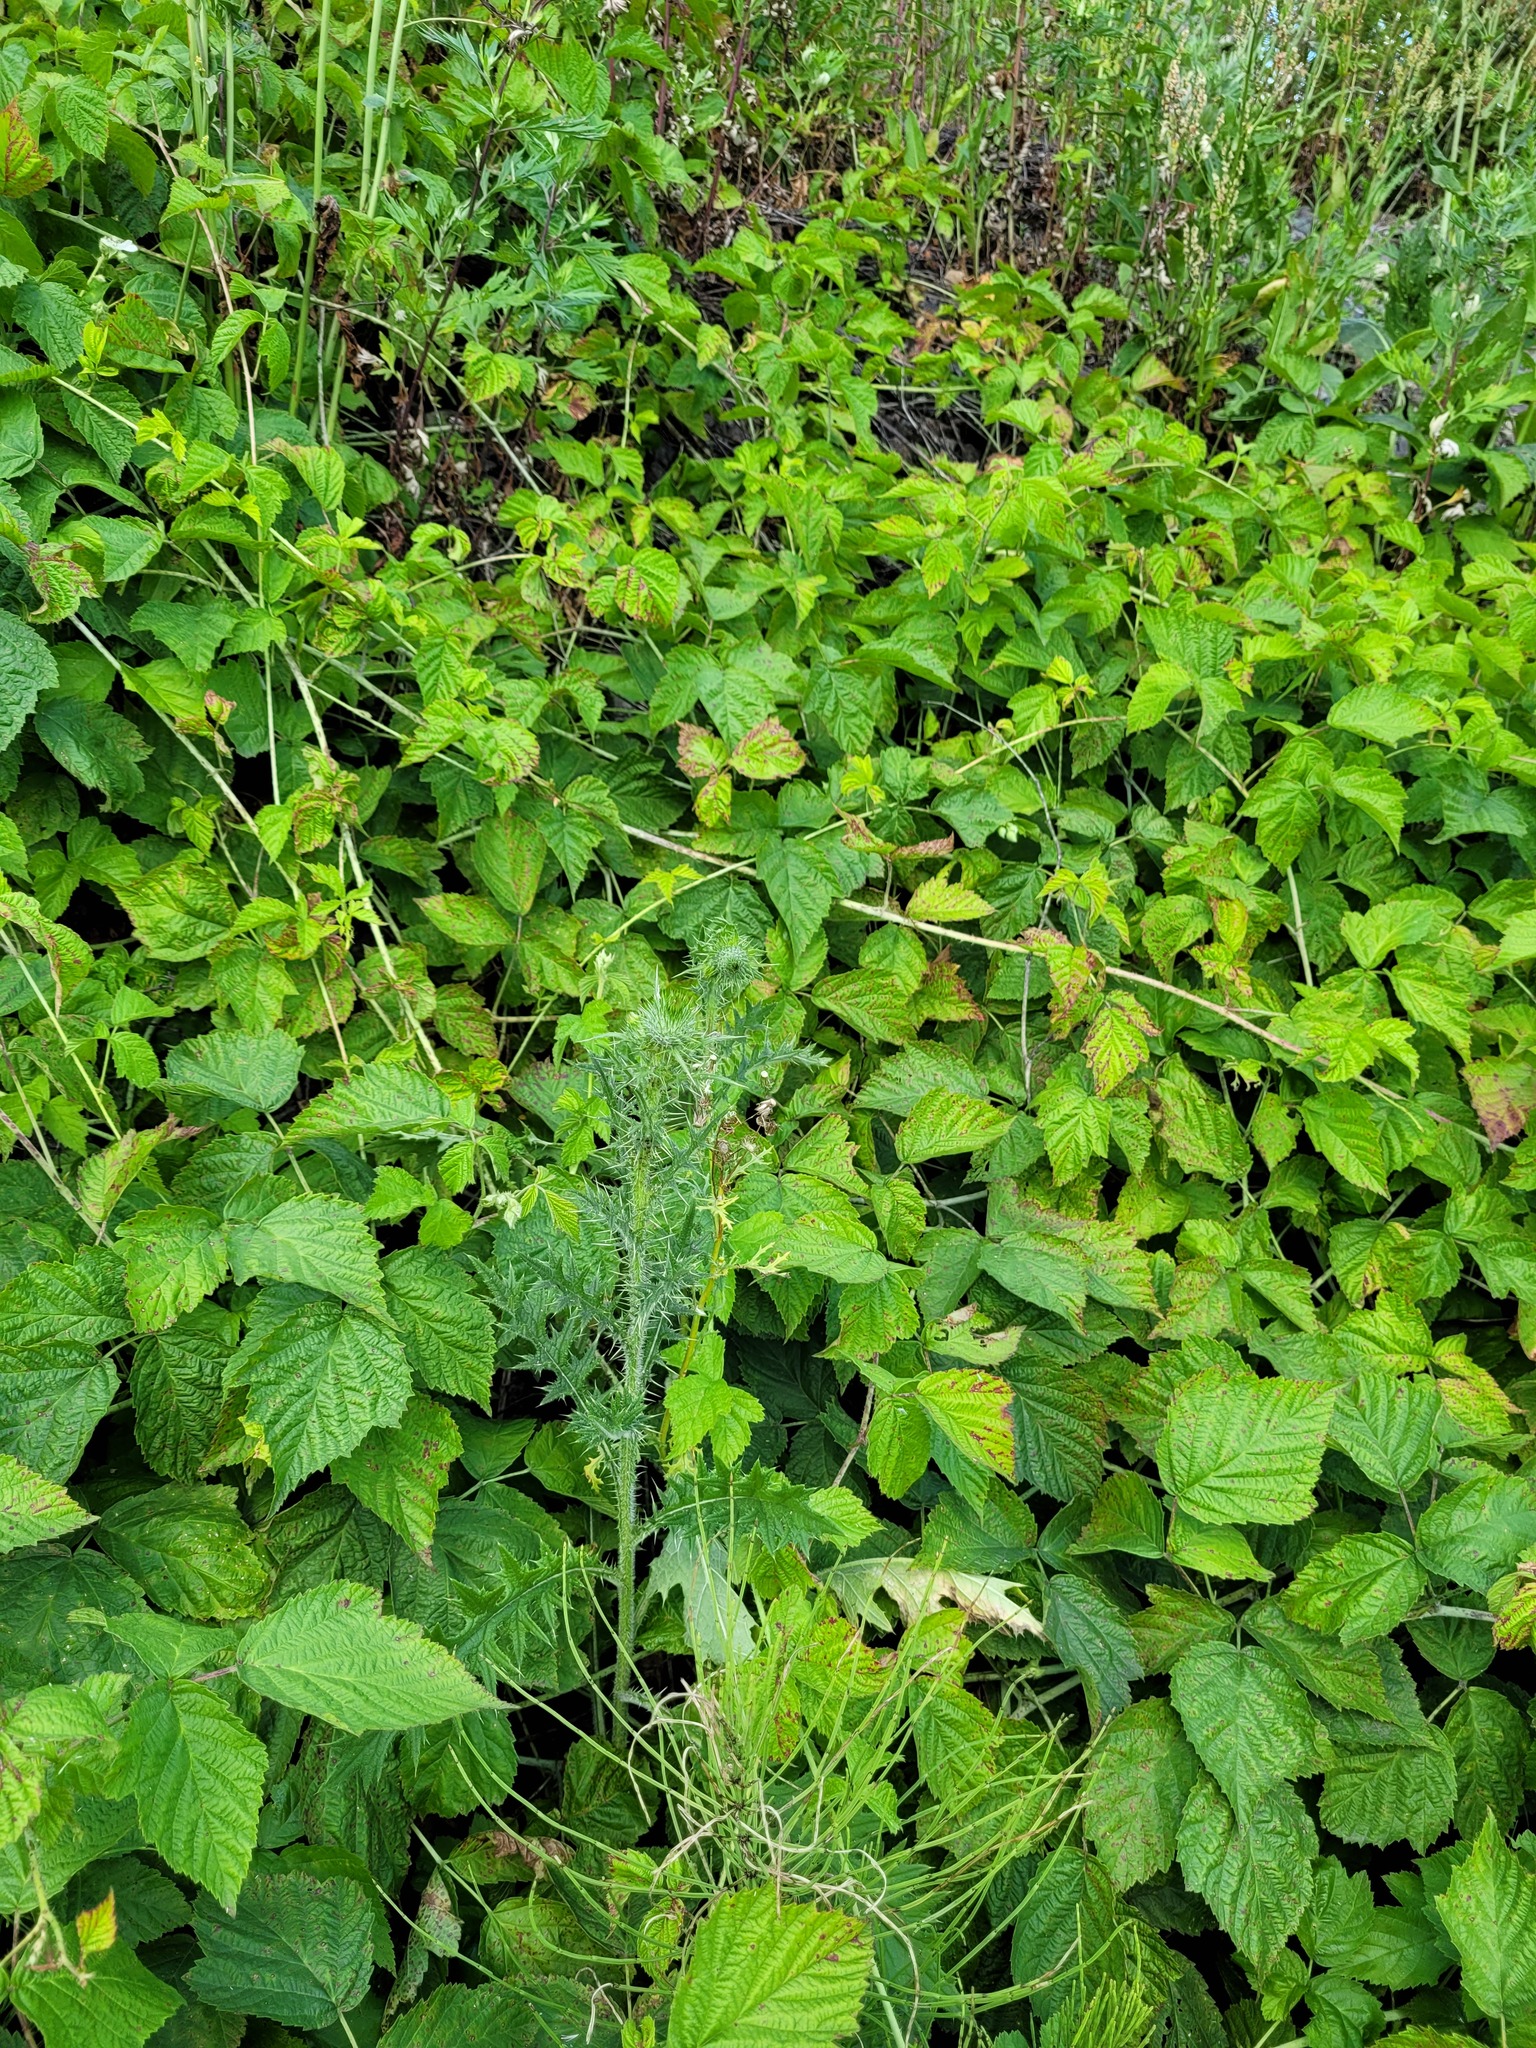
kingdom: Plantae
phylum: Tracheophyta
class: Magnoliopsida
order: Asterales
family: Asteraceae
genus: Cirsium
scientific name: Cirsium vulgare
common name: Bull thistle
